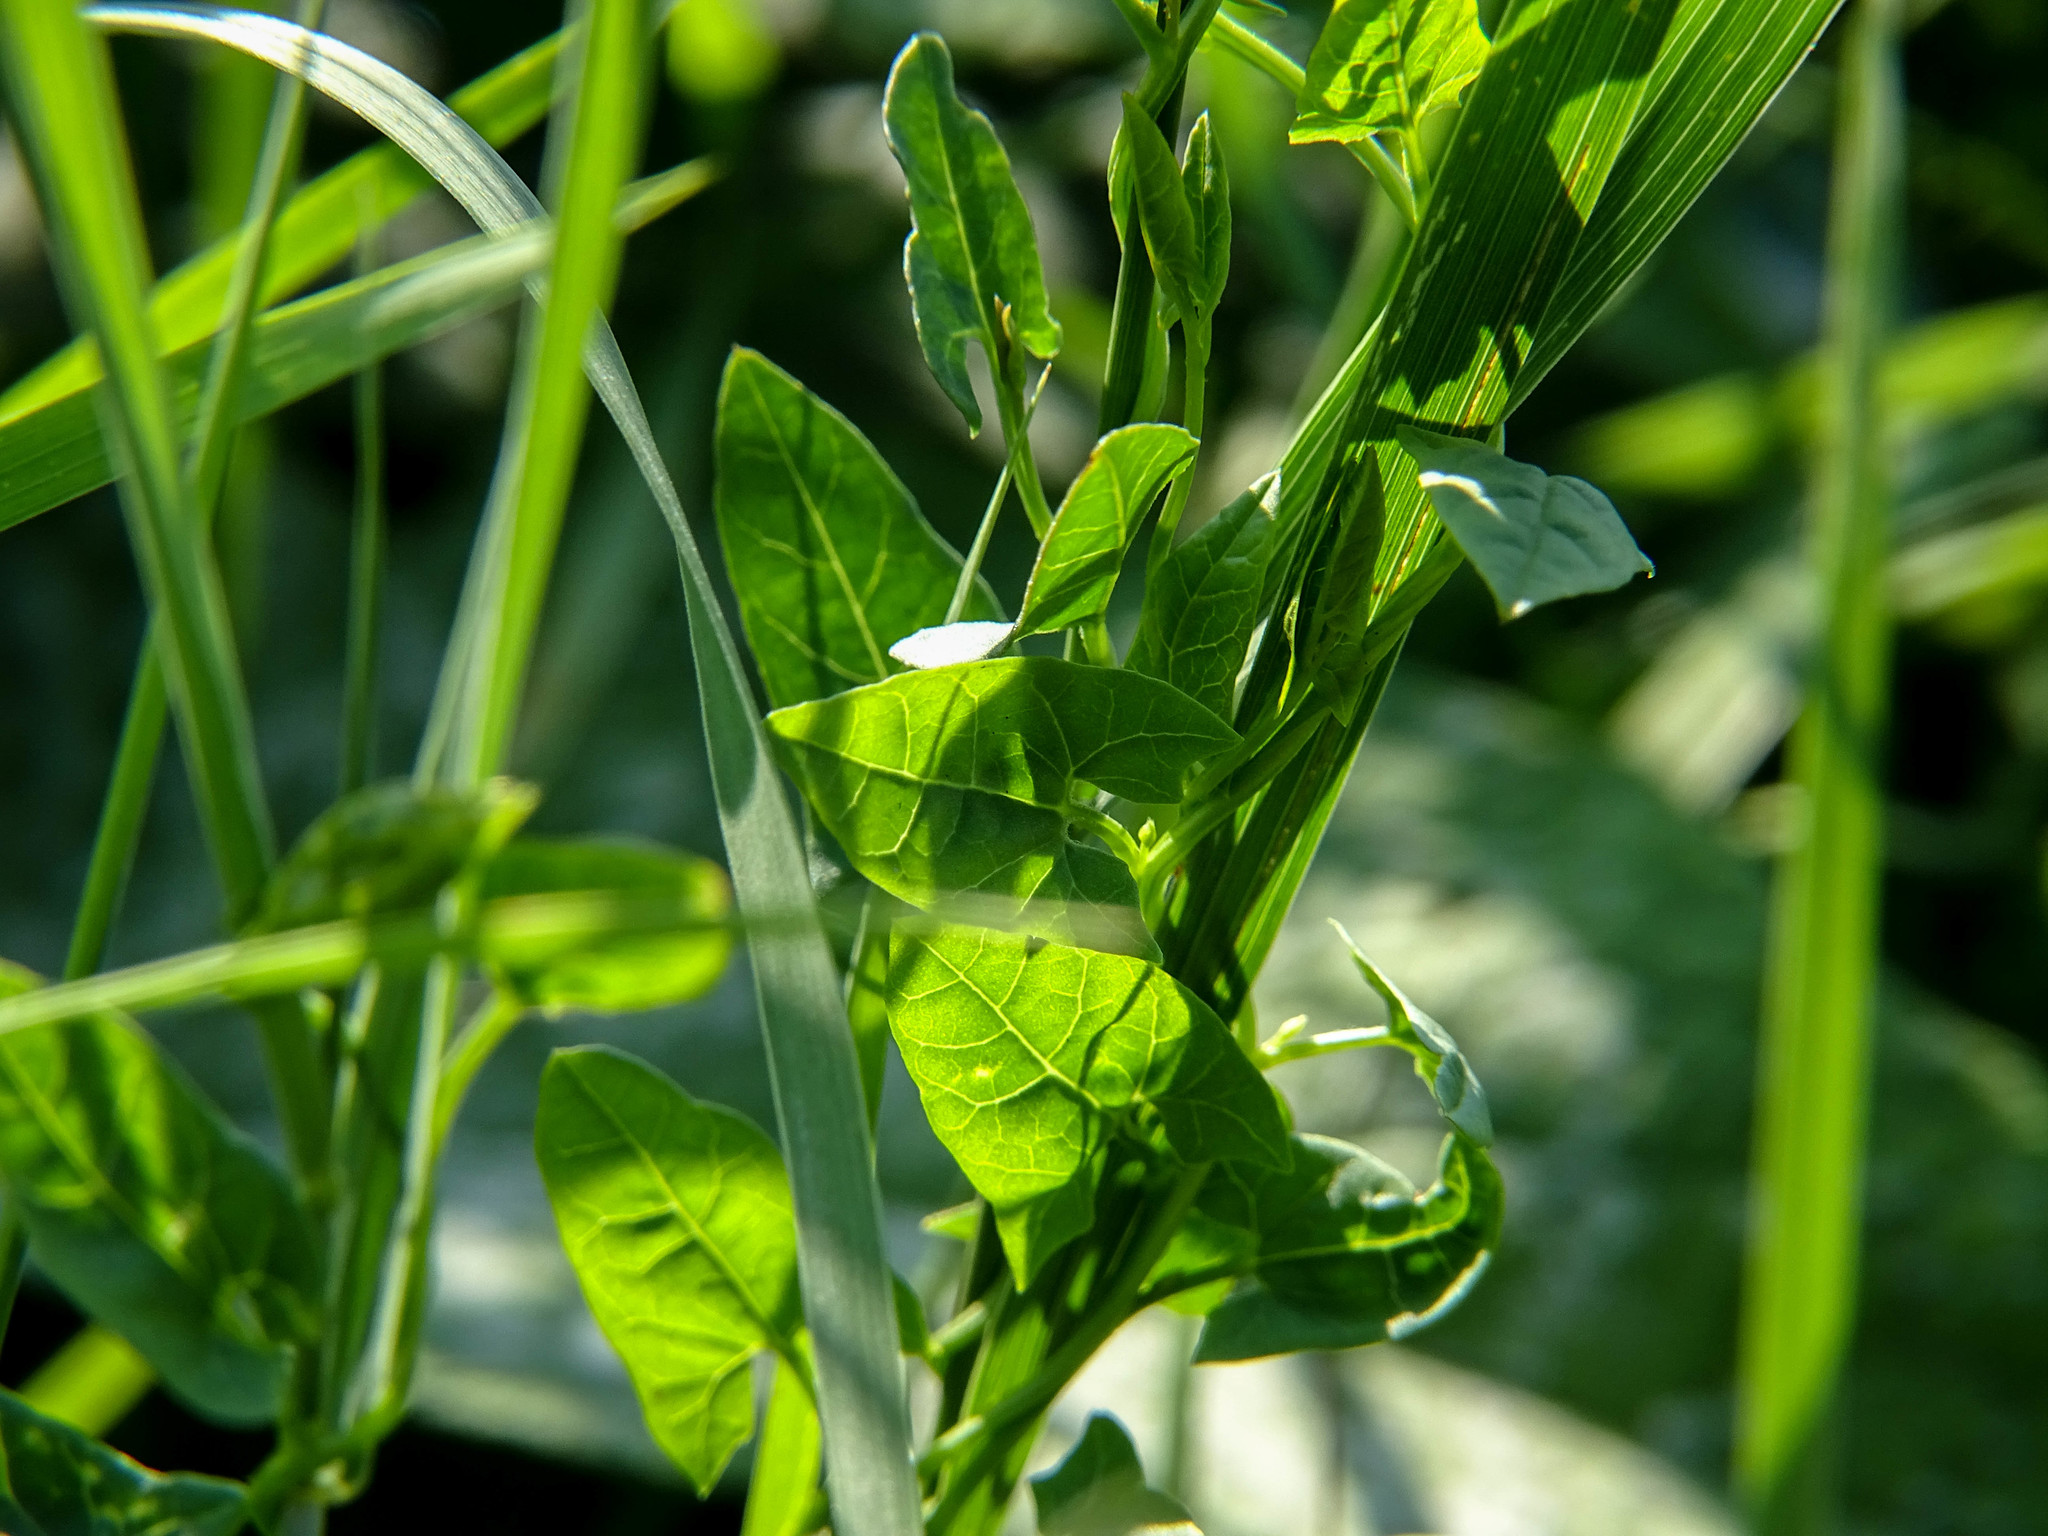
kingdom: Plantae
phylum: Tracheophyta
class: Magnoliopsida
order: Solanales
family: Convolvulaceae
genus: Convolvulus
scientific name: Convolvulus arvensis
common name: Field bindweed
